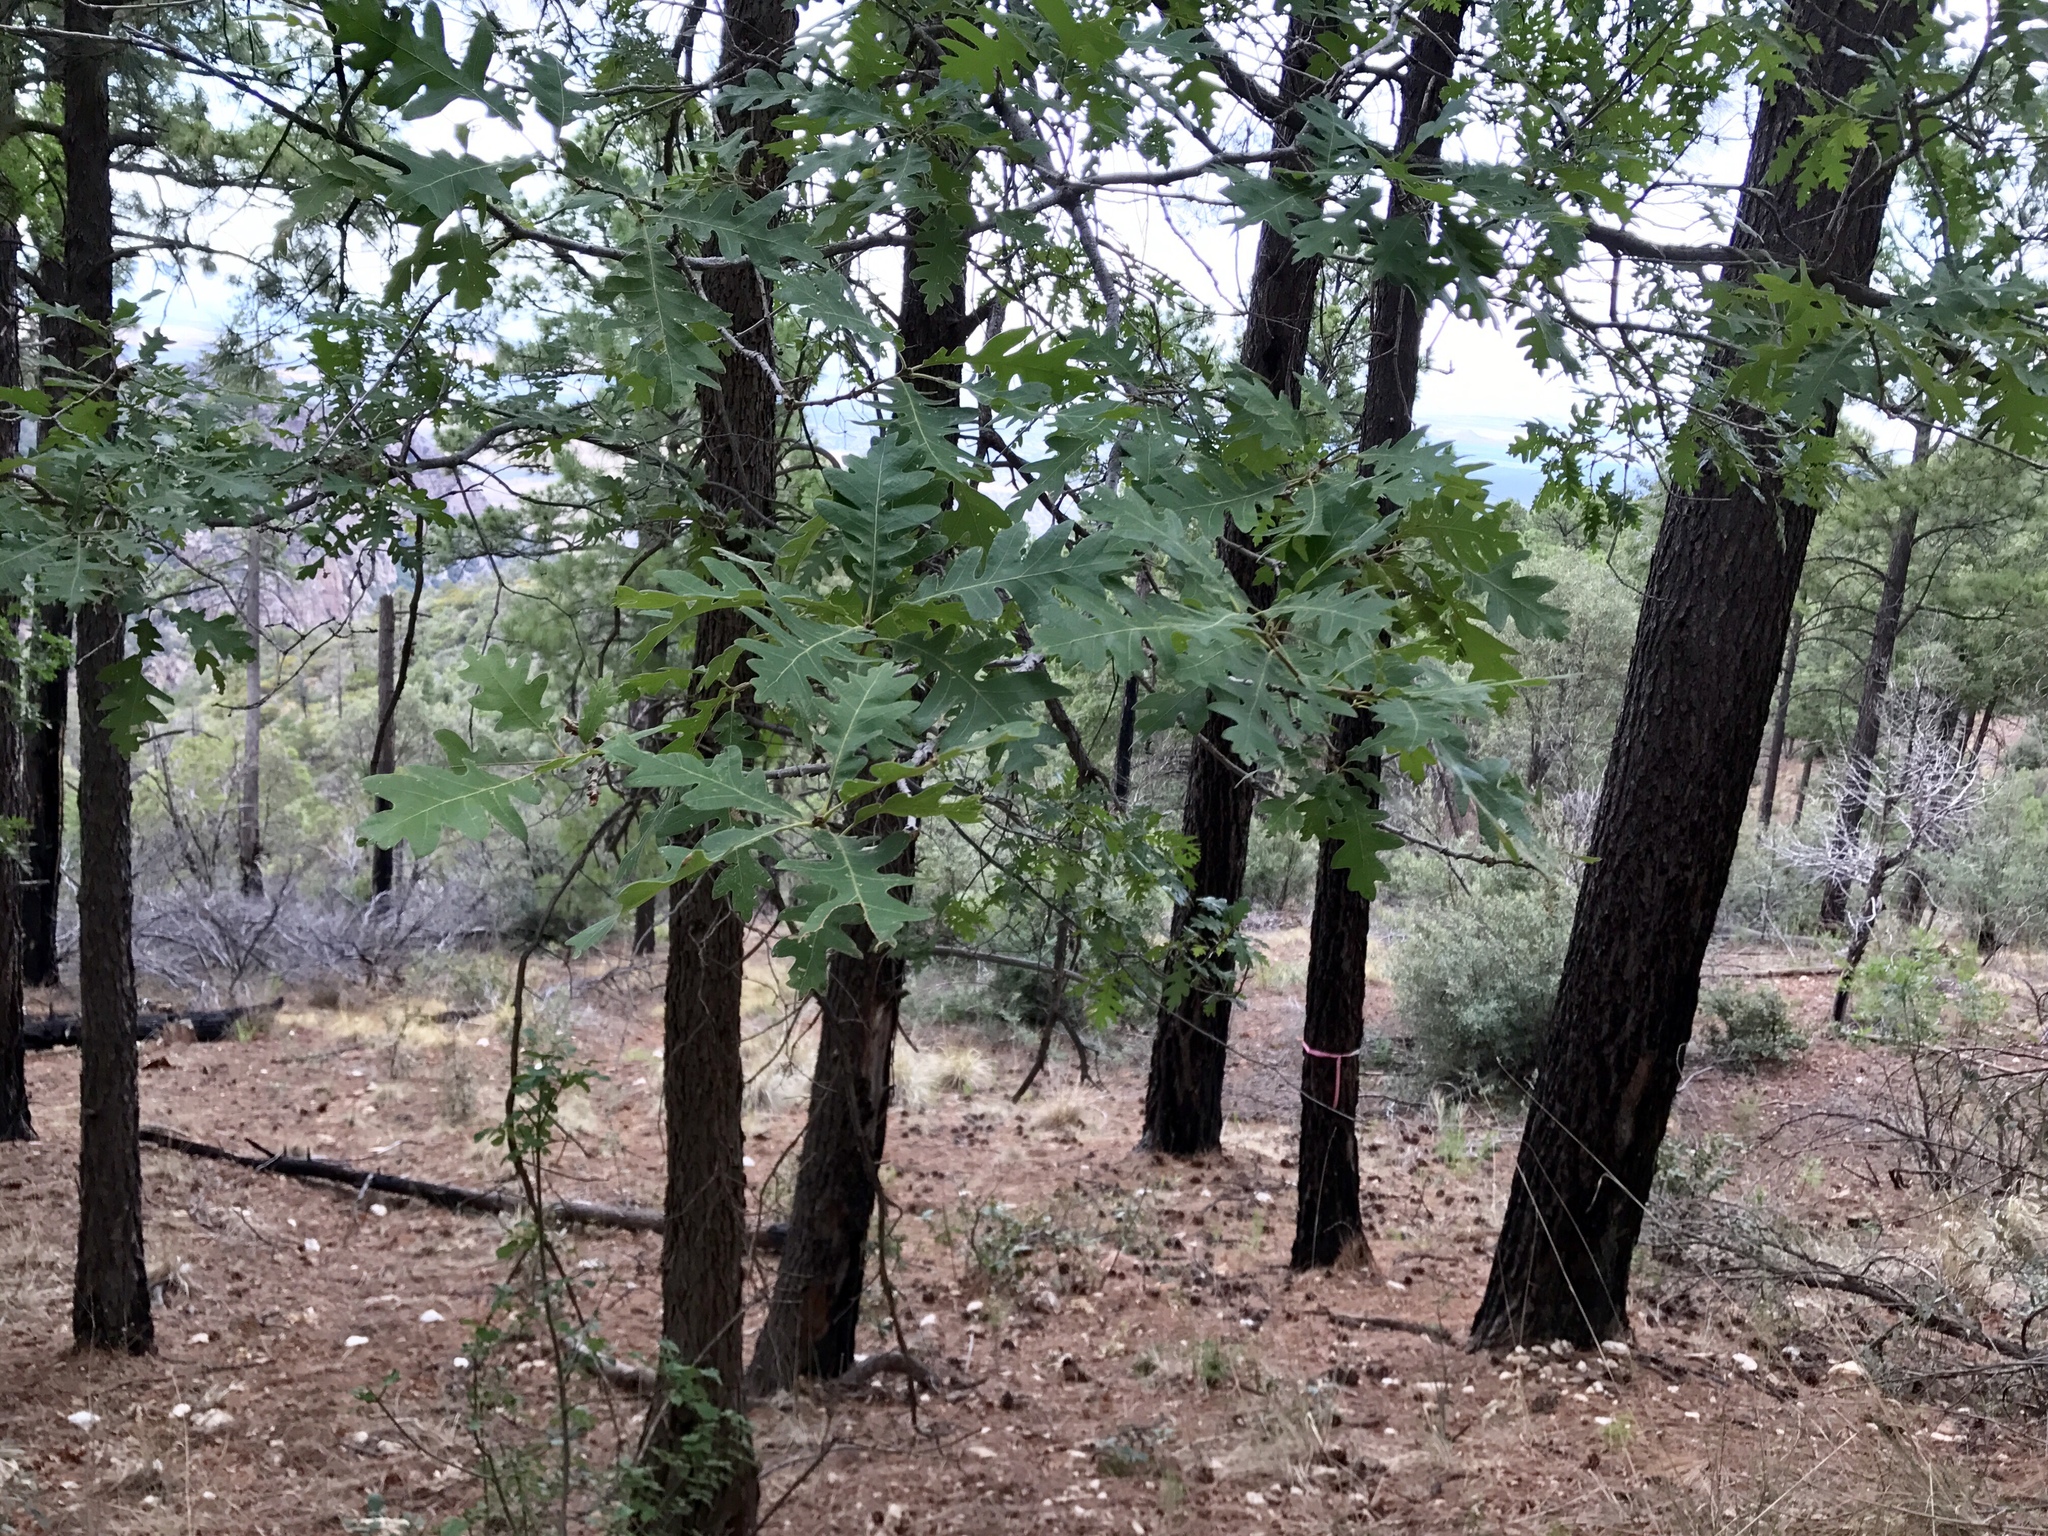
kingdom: Plantae
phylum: Tracheophyta
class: Magnoliopsida
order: Fagales
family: Fagaceae
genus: Quercus
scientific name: Quercus gambelii
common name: Gambel oak
